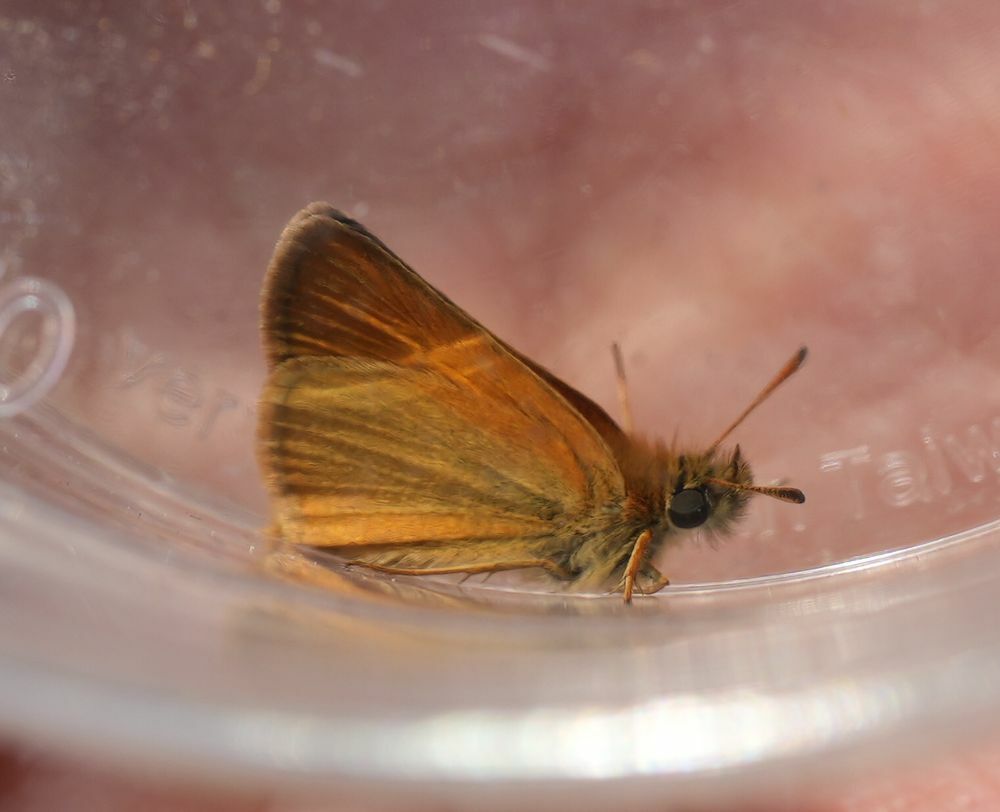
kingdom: Animalia
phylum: Arthropoda
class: Insecta
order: Lepidoptera
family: Hesperiidae
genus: Thymelicus
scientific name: Thymelicus lineola
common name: Essex skipper
